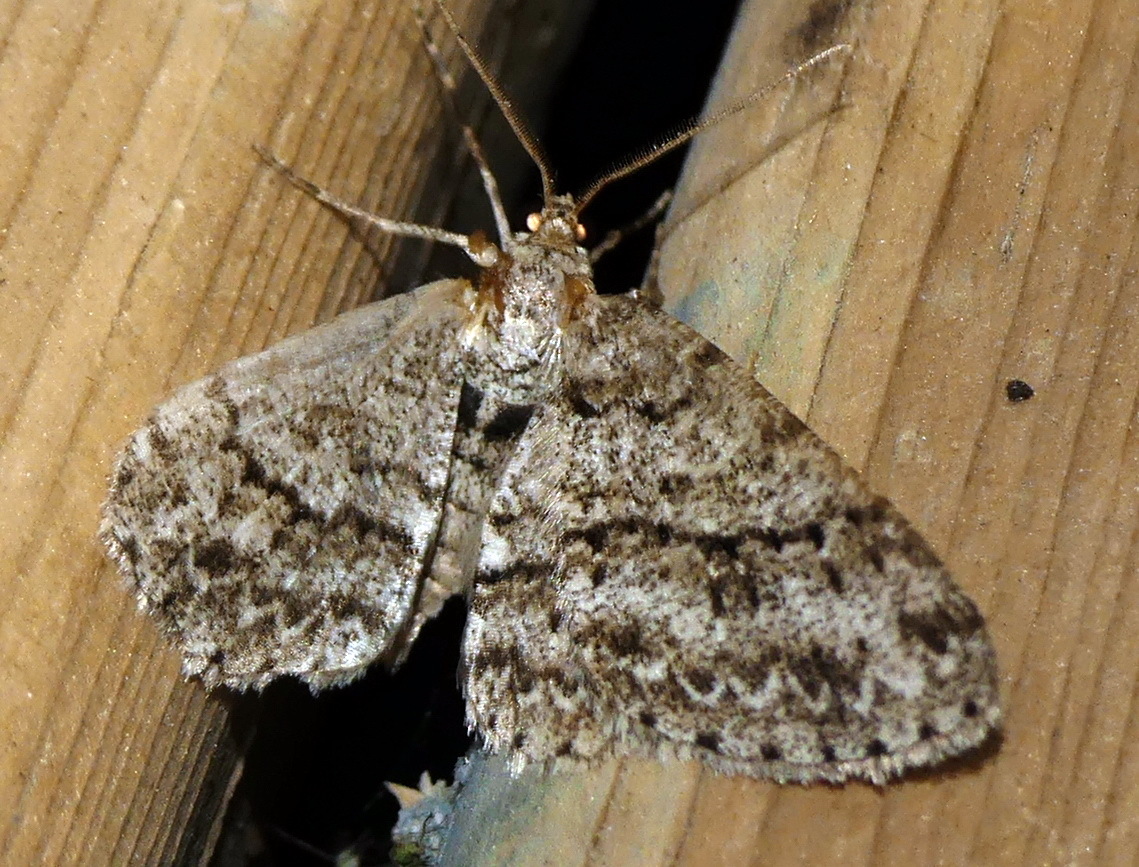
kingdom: Animalia
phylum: Arthropoda
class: Insecta
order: Lepidoptera
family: Geometridae
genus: Ectropis
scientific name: Ectropis crepuscularia
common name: Engrailed
